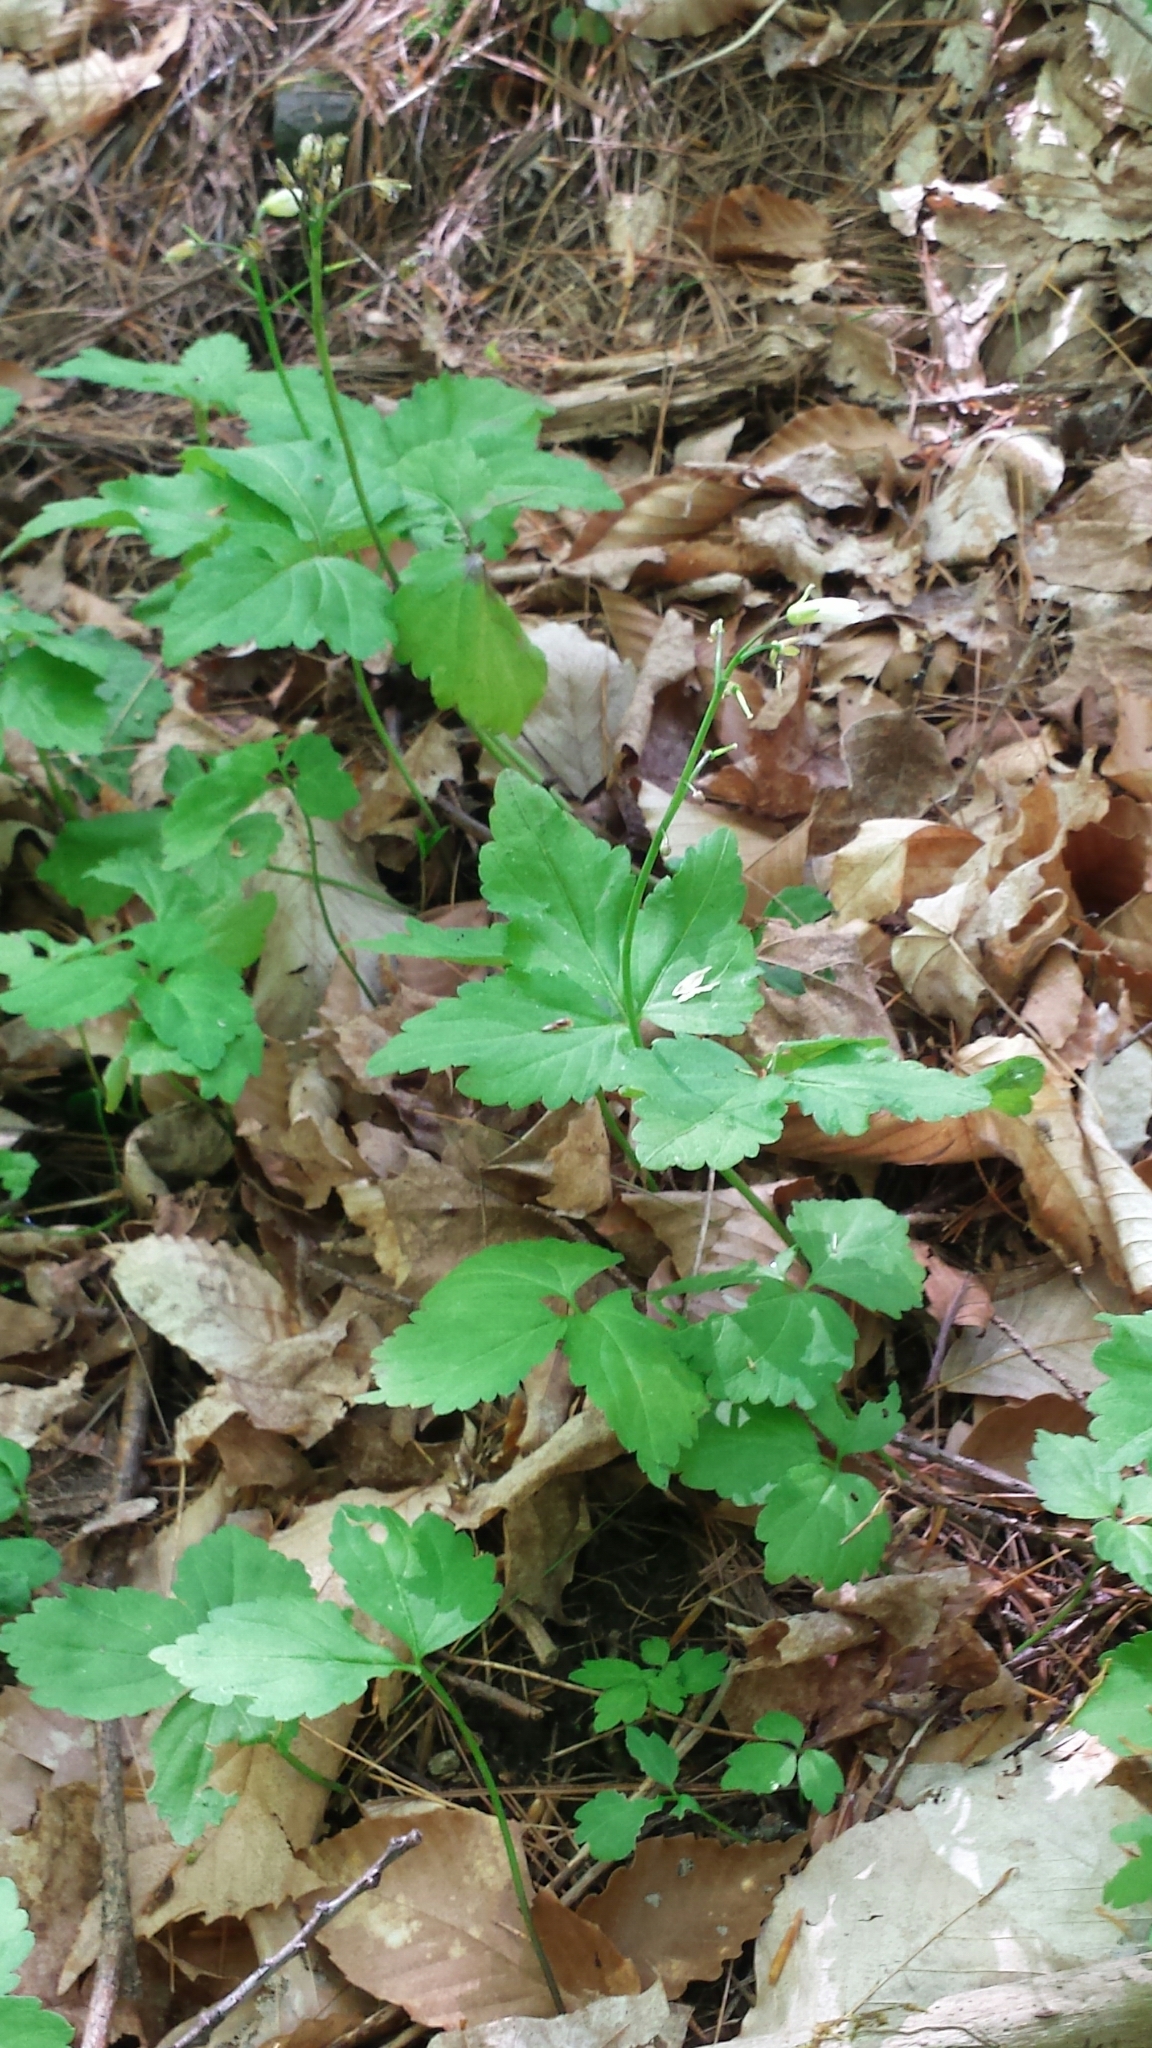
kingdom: Plantae
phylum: Tracheophyta
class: Magnoliopsida
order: Brassicales
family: Brassicaceae
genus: Cardamine
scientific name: Cardamine diphylla
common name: Broad-leaved toothwort
